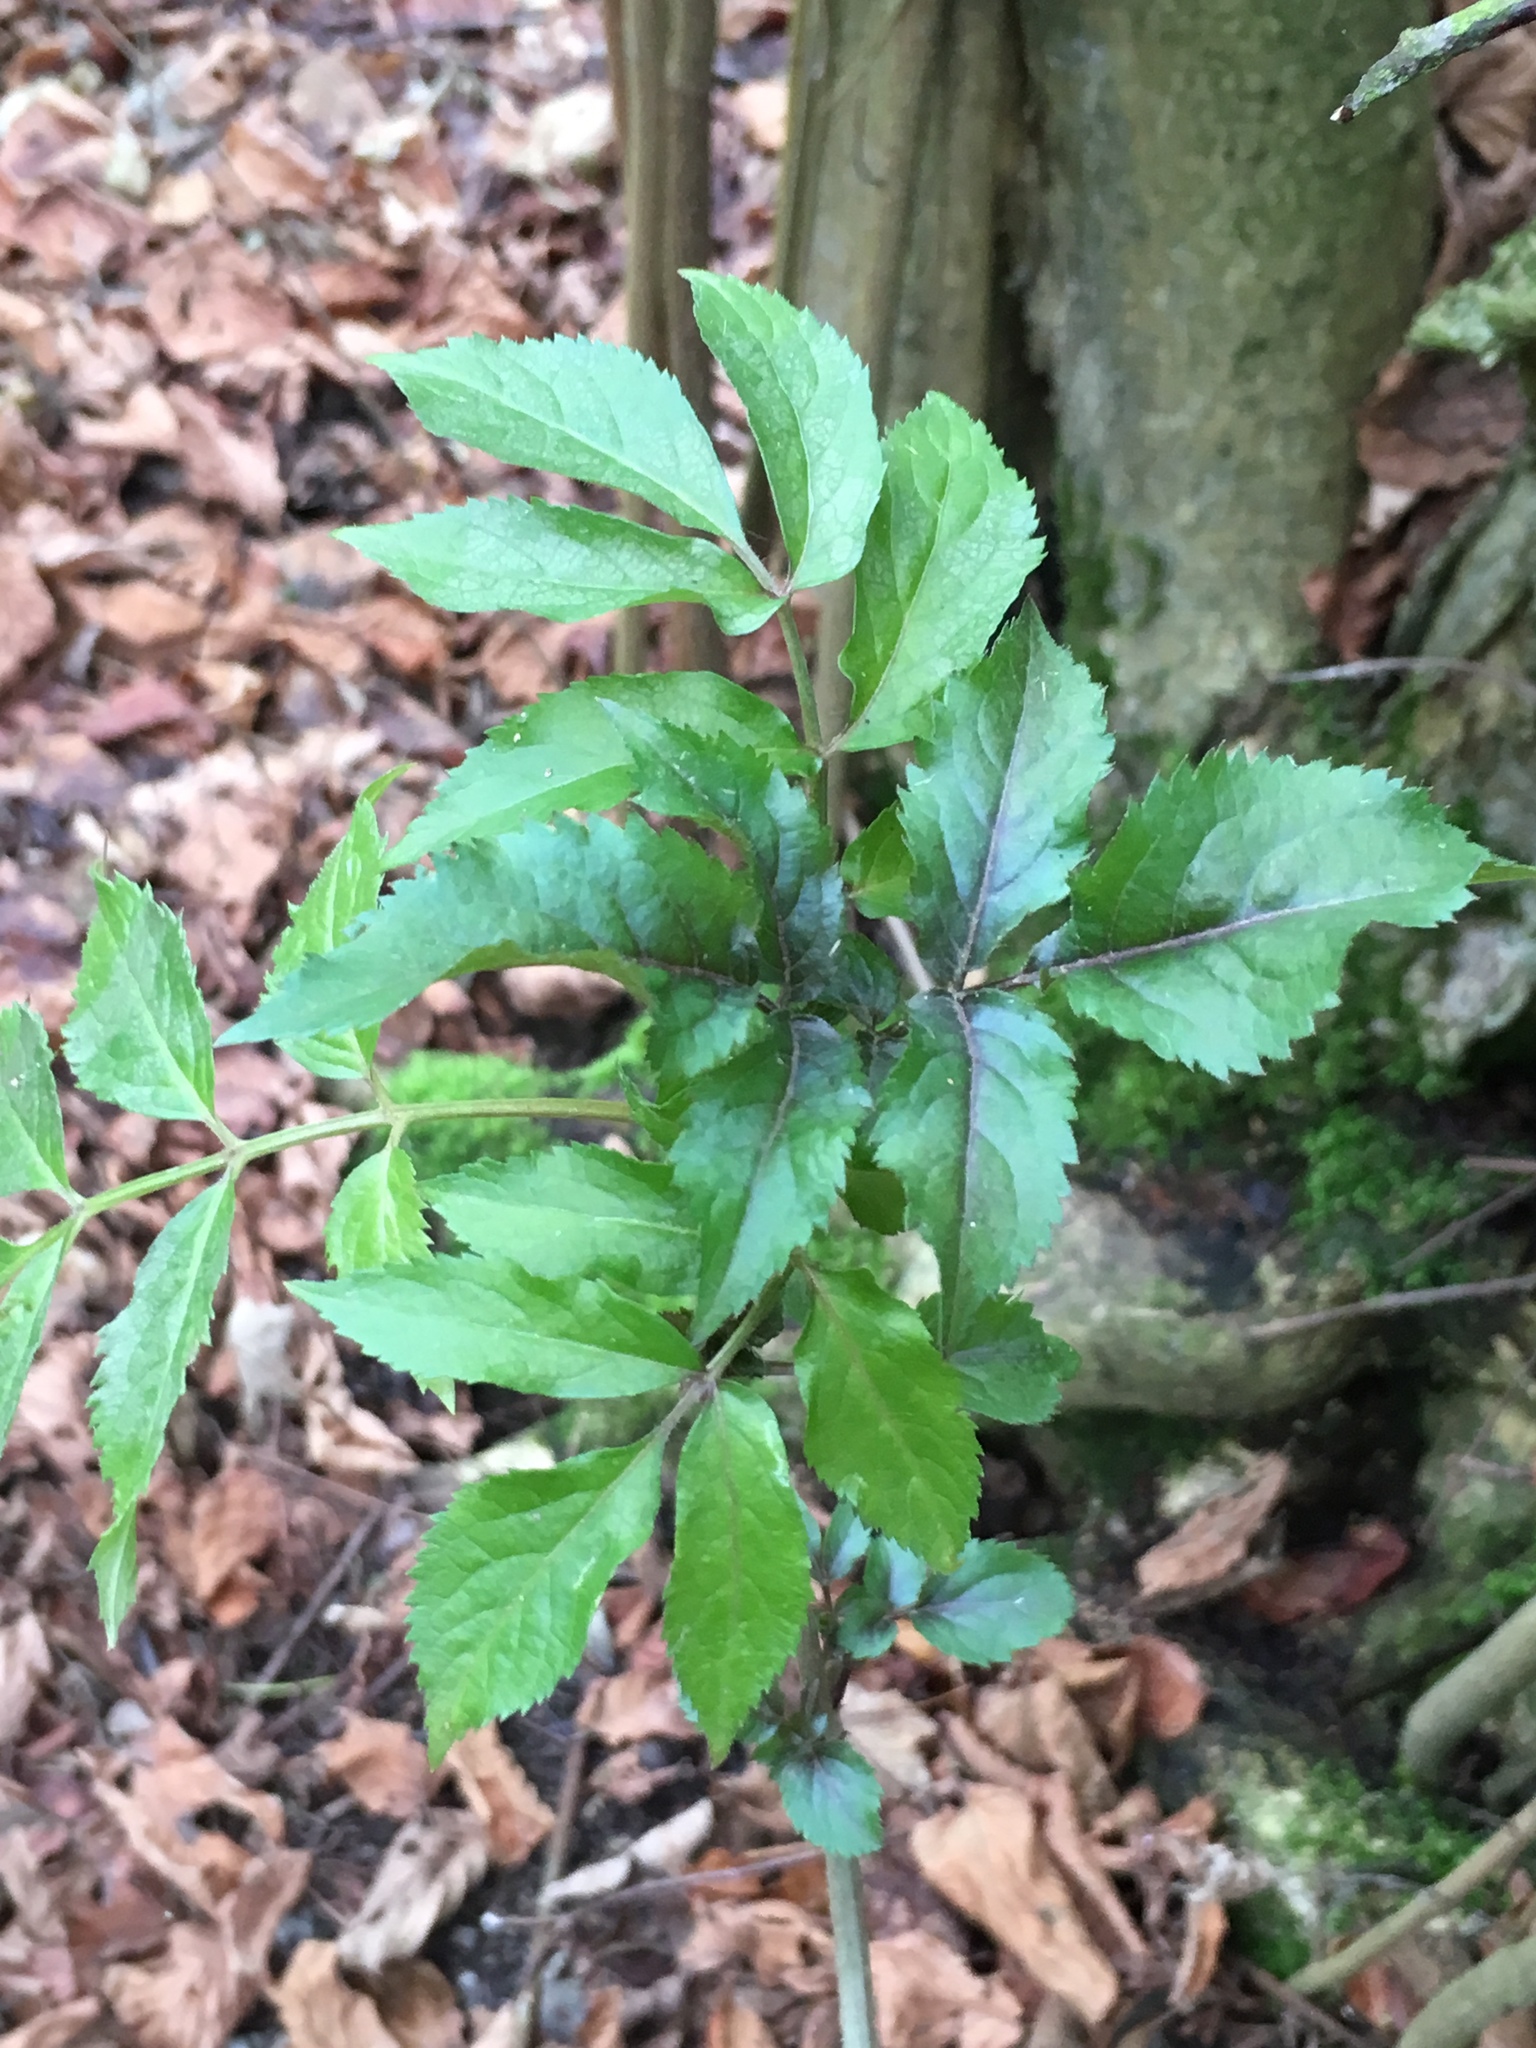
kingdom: Plantae
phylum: Tracheophyta
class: Magnoliopsida
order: Dipsacales
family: Viburnaceae
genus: Sambucus
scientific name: Sambucus nigra
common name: Elder
